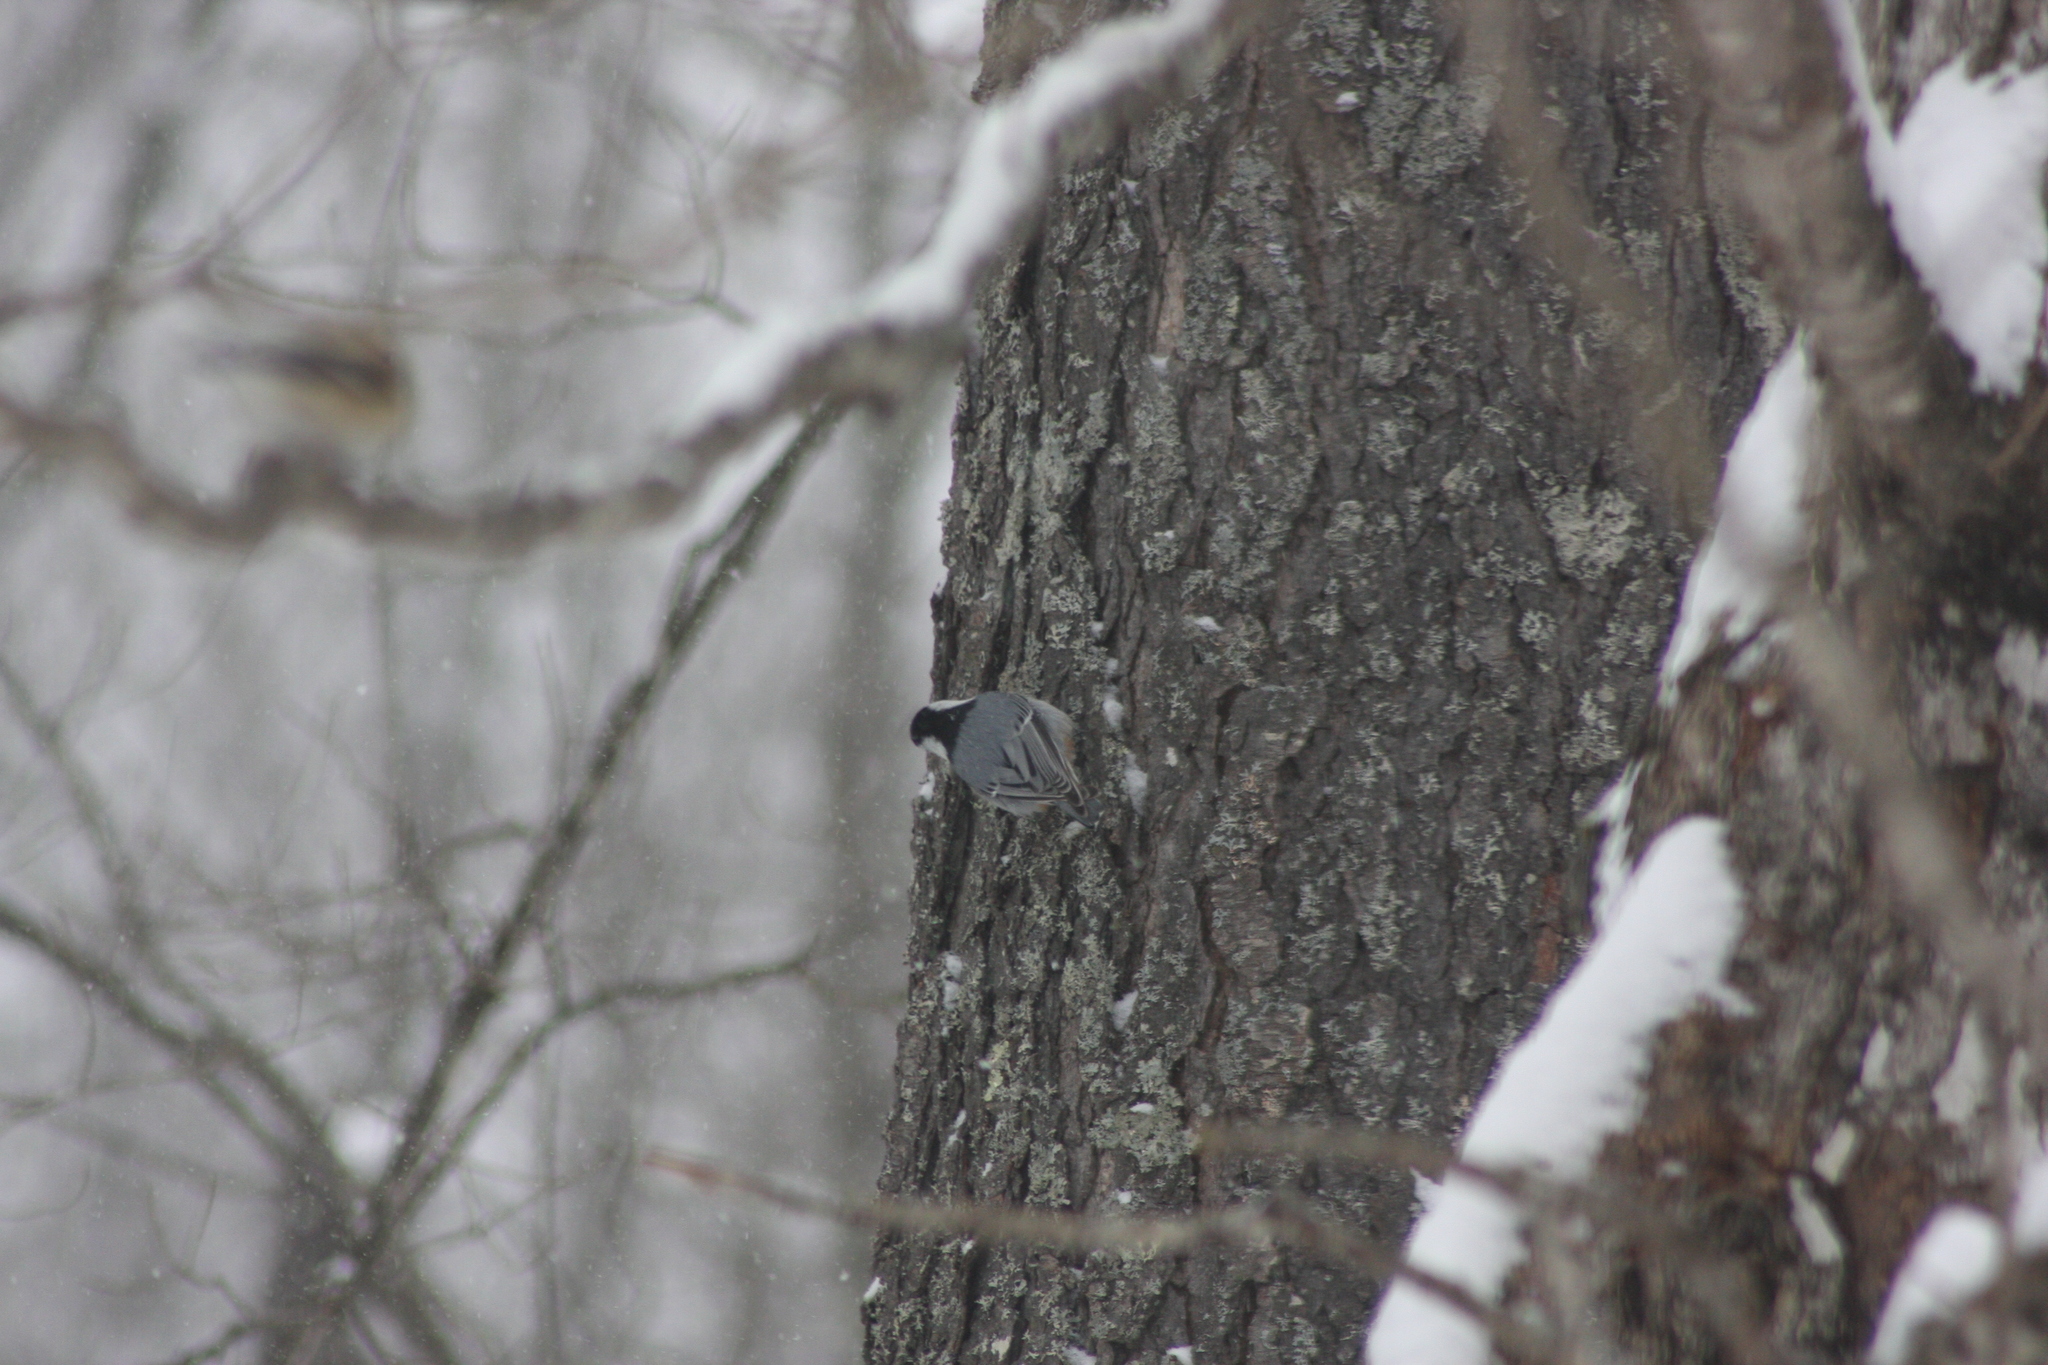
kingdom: Animalia
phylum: Chordata
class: Aves
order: Passeriformes
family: Sittidae
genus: Sitta
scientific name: Sitta carolinensis
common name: White-breasted nuthatch
